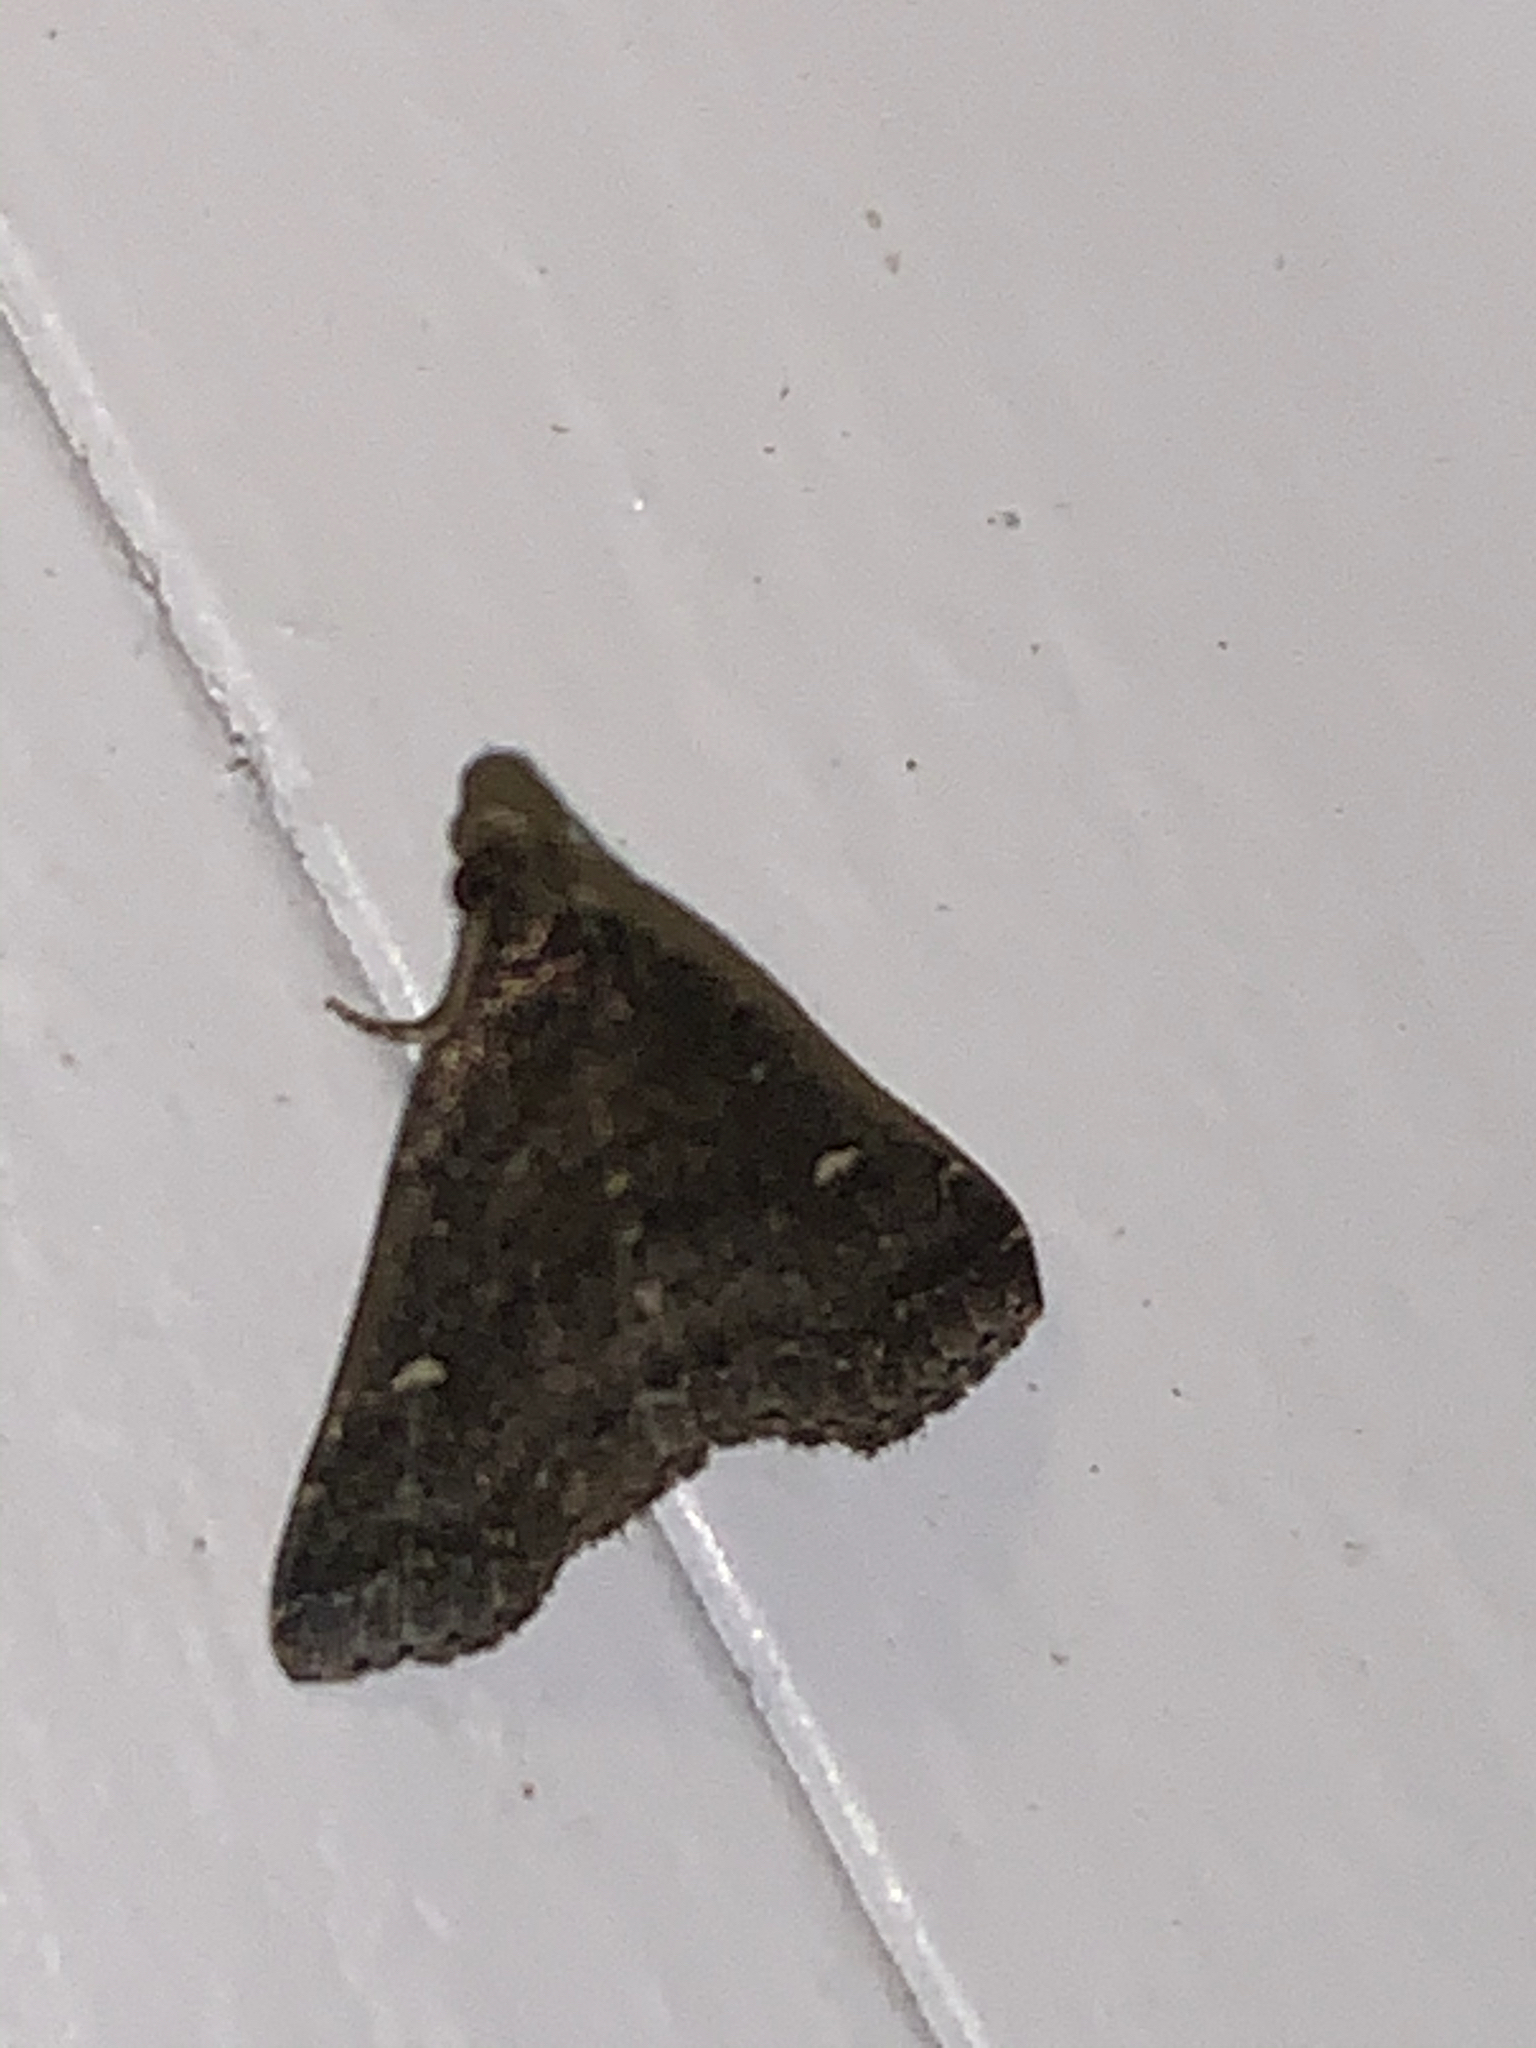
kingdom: Animalia
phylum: Arthropoda
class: Insecta
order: Lepidoptera
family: Erebidae
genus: Tetanolita
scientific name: Tetanolita mynesalis
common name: Smoky tetanolita moth
